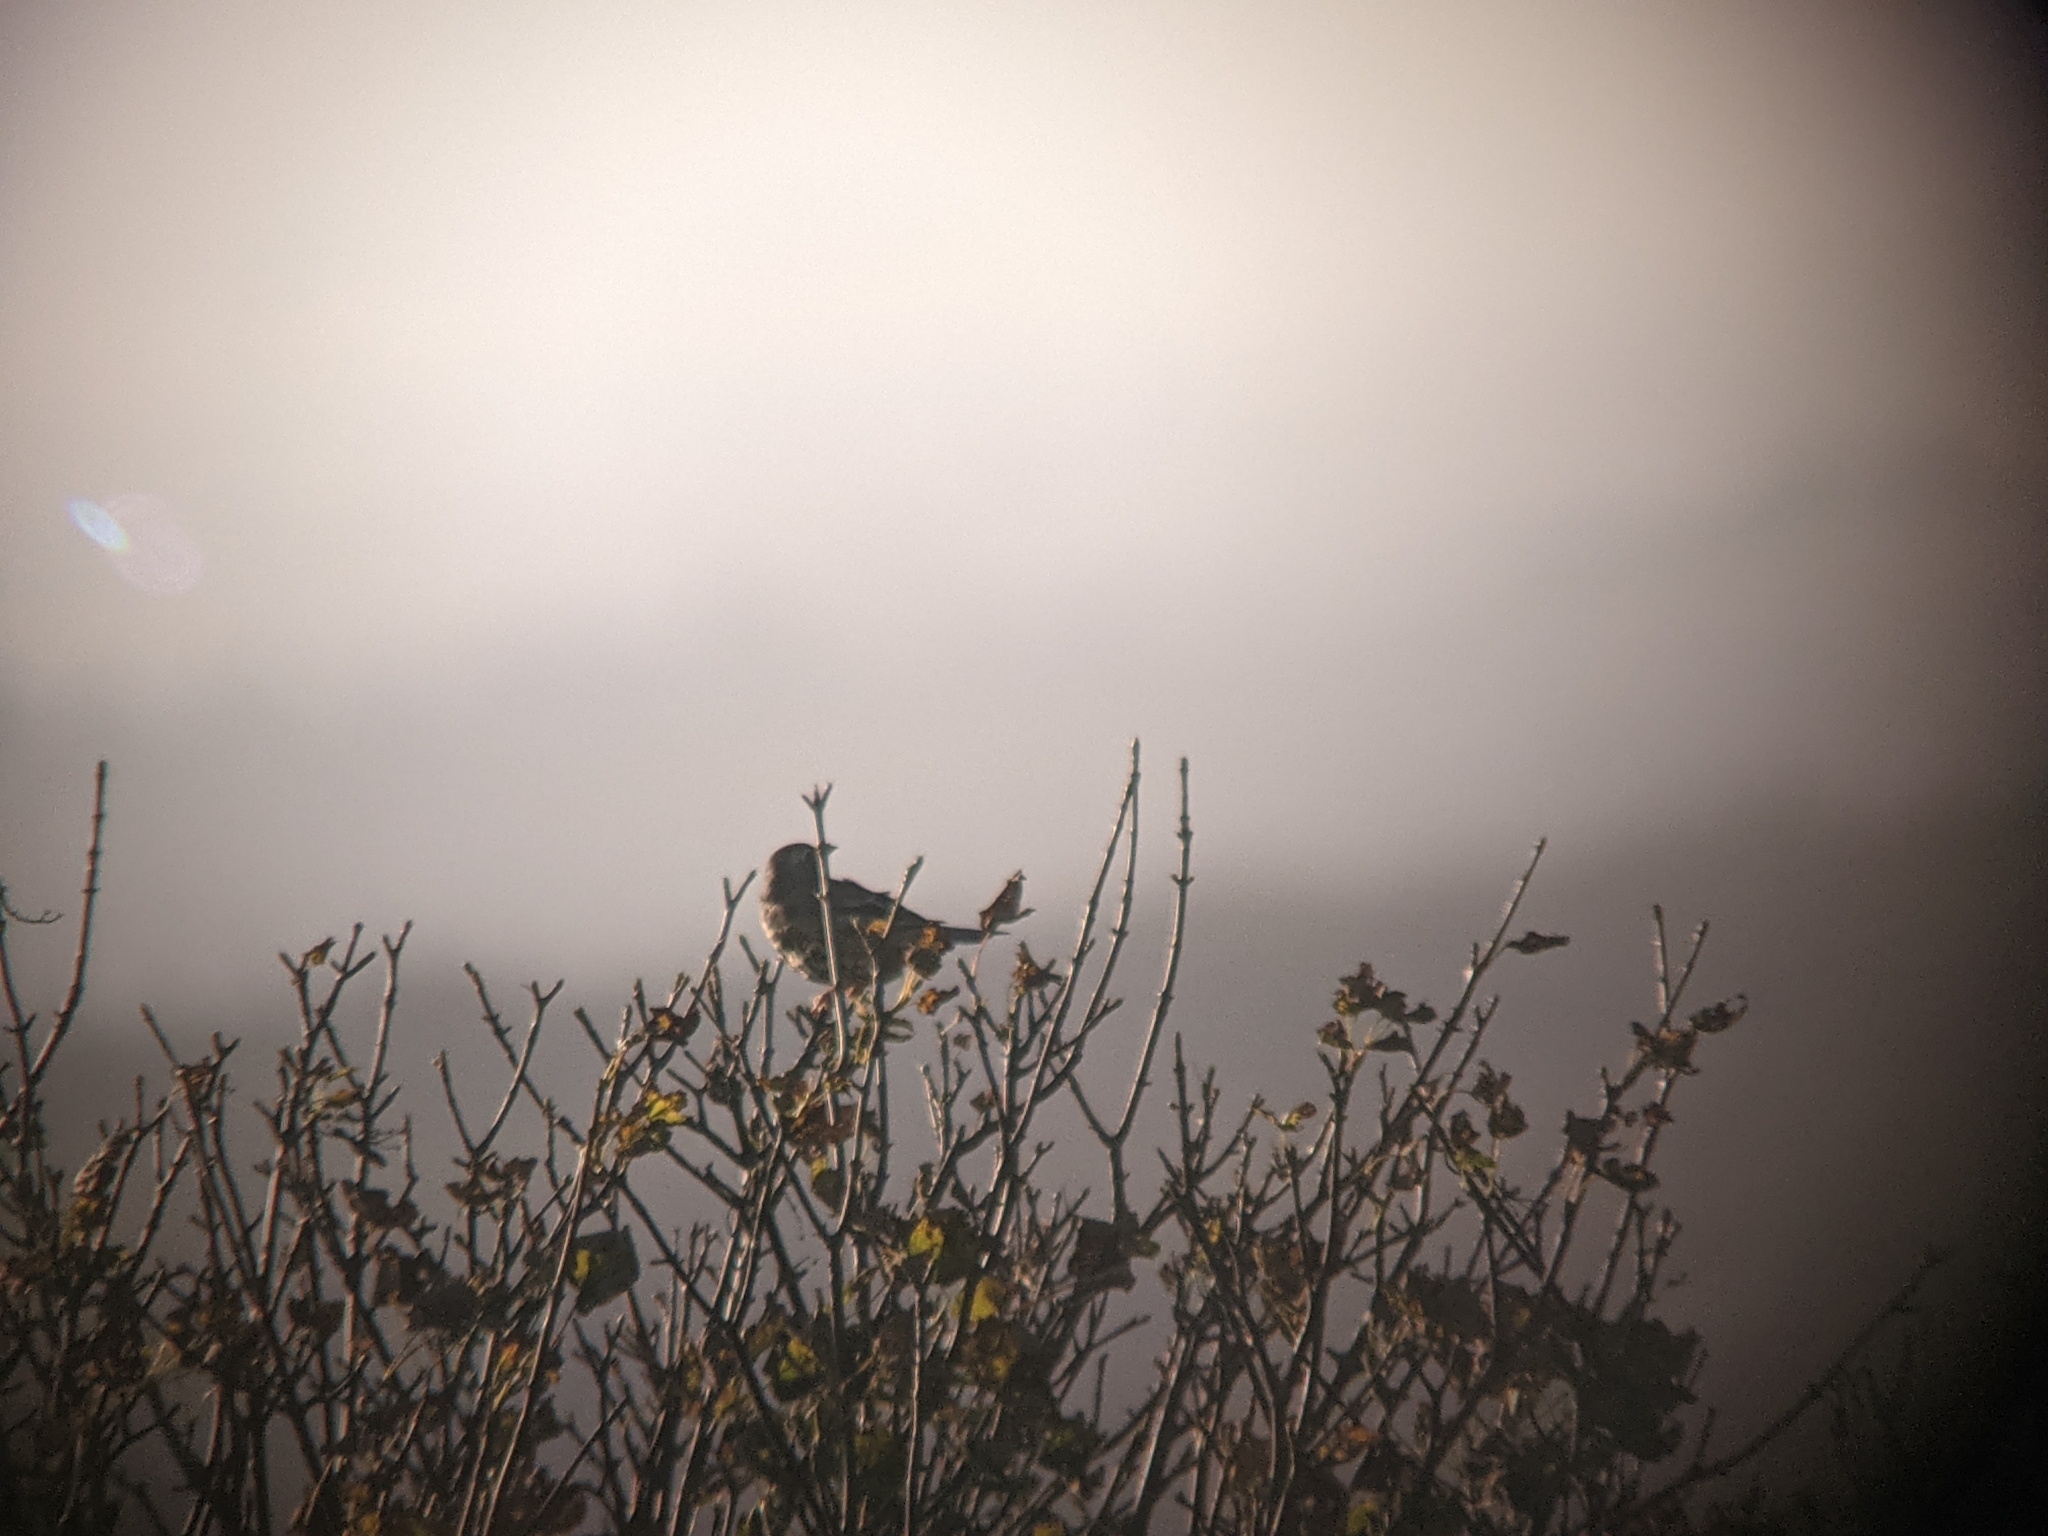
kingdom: Animalia
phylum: Chordata
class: Aves
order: Passeriformes
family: Turdidae
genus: Turdus
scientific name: Turdus viscivorus
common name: Mistle thrush
